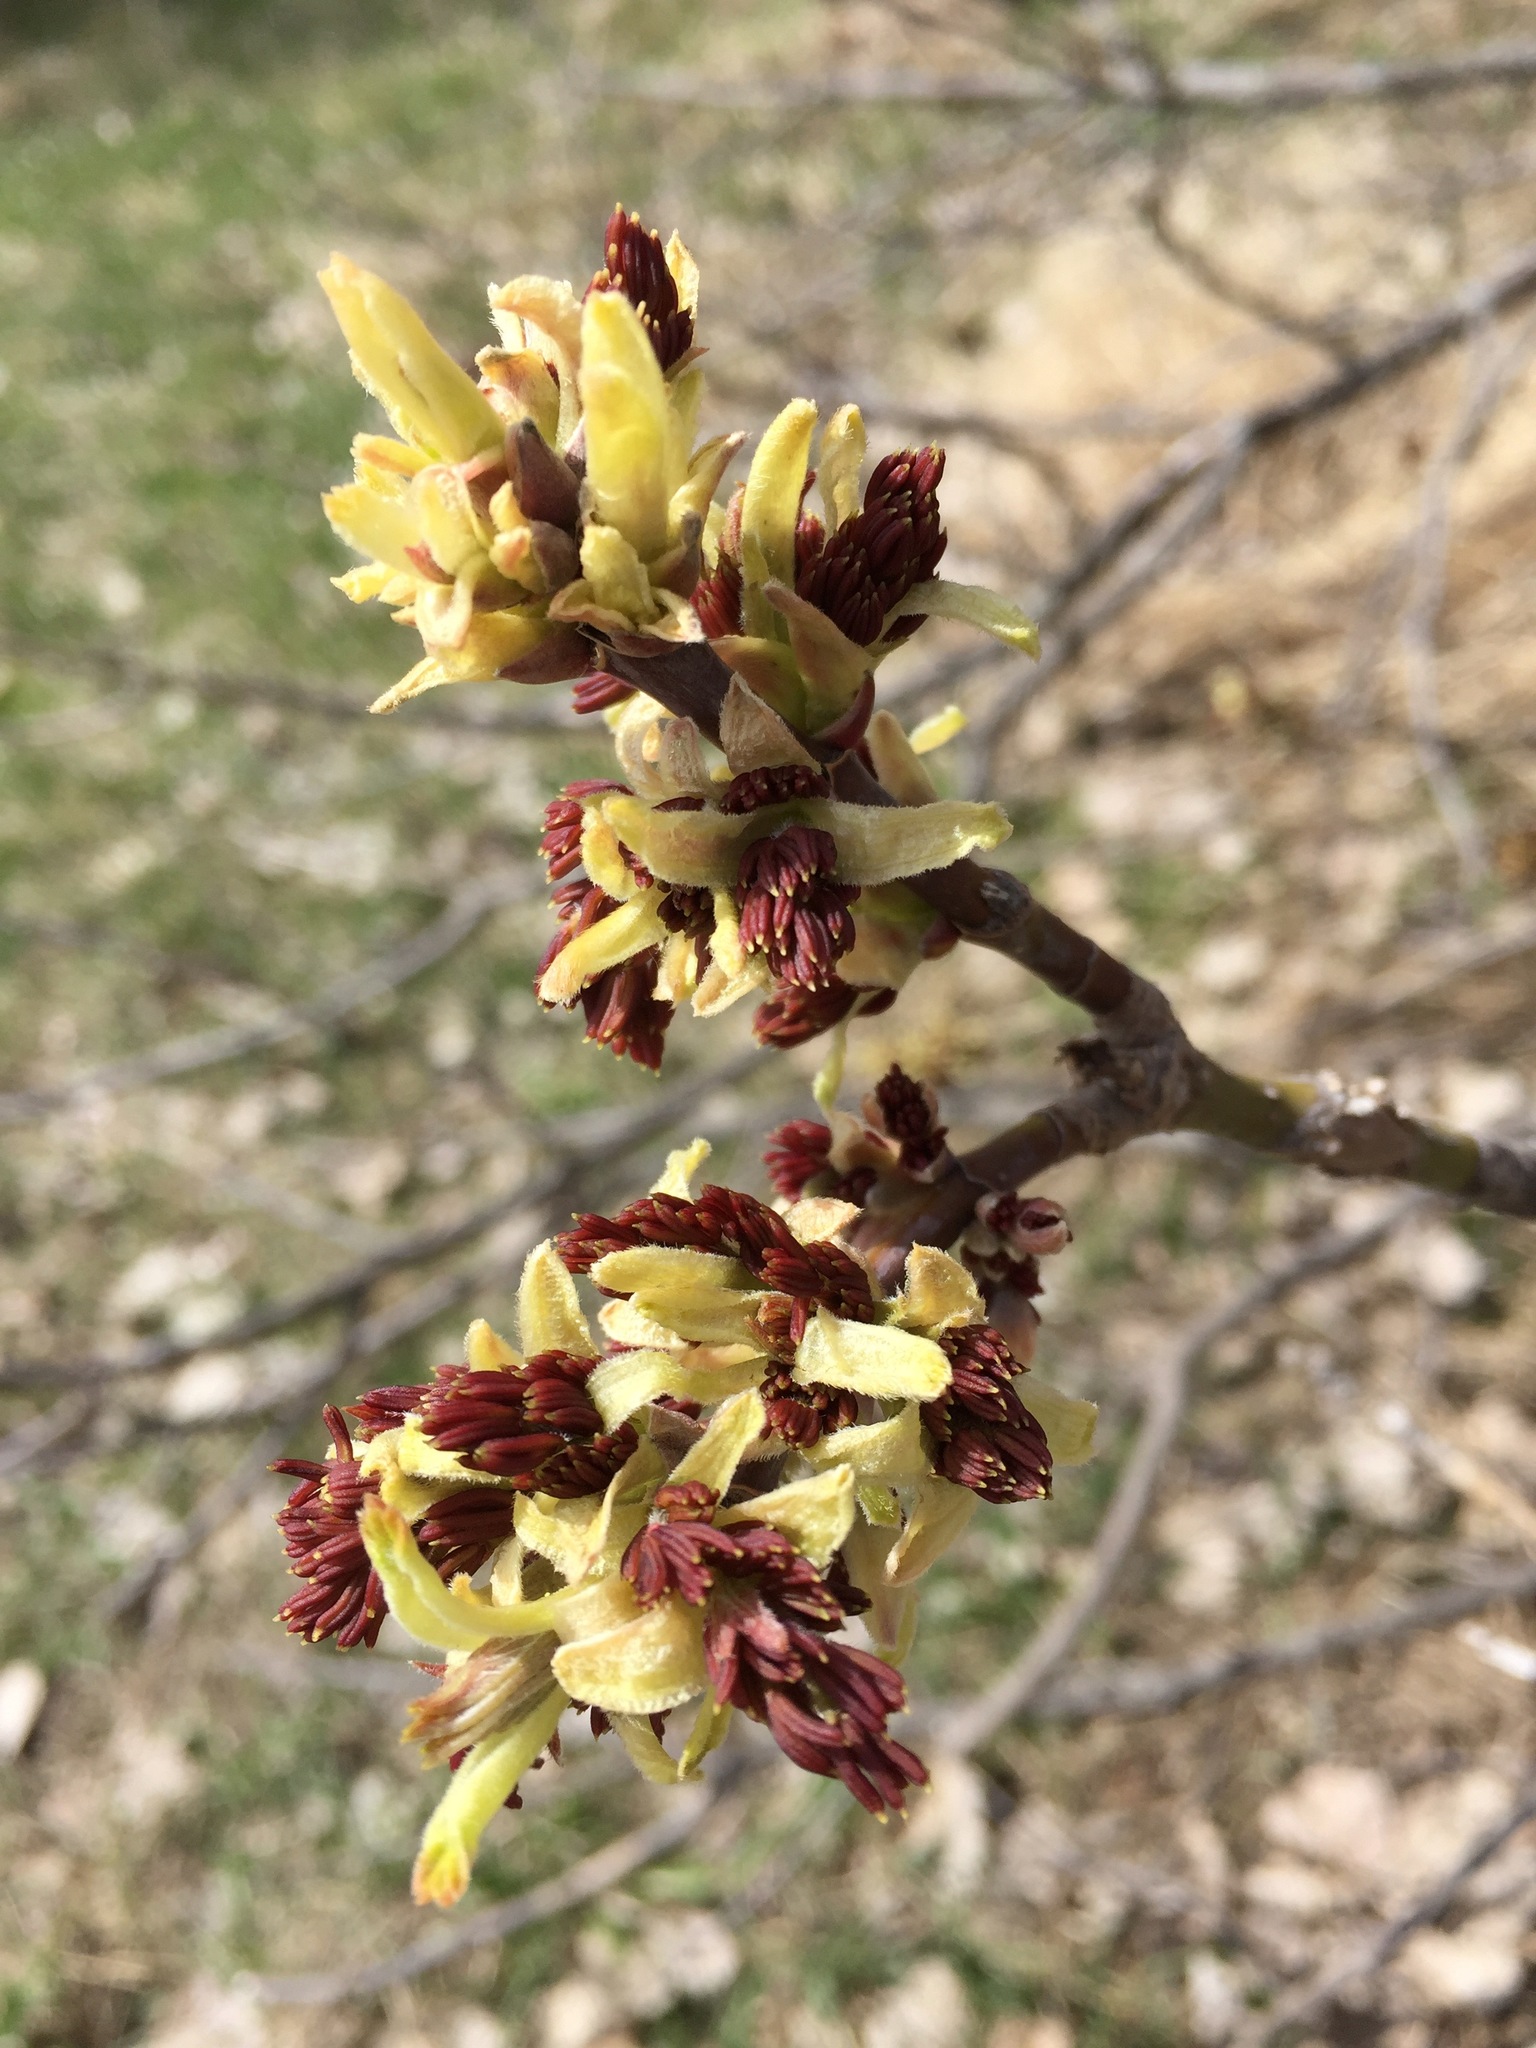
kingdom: Plantae
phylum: Tracheophyta
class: Magnoliopsida
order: Sapindales
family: Sapindaceae
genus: Acer
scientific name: Acer negundo
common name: Ashleaf maple
